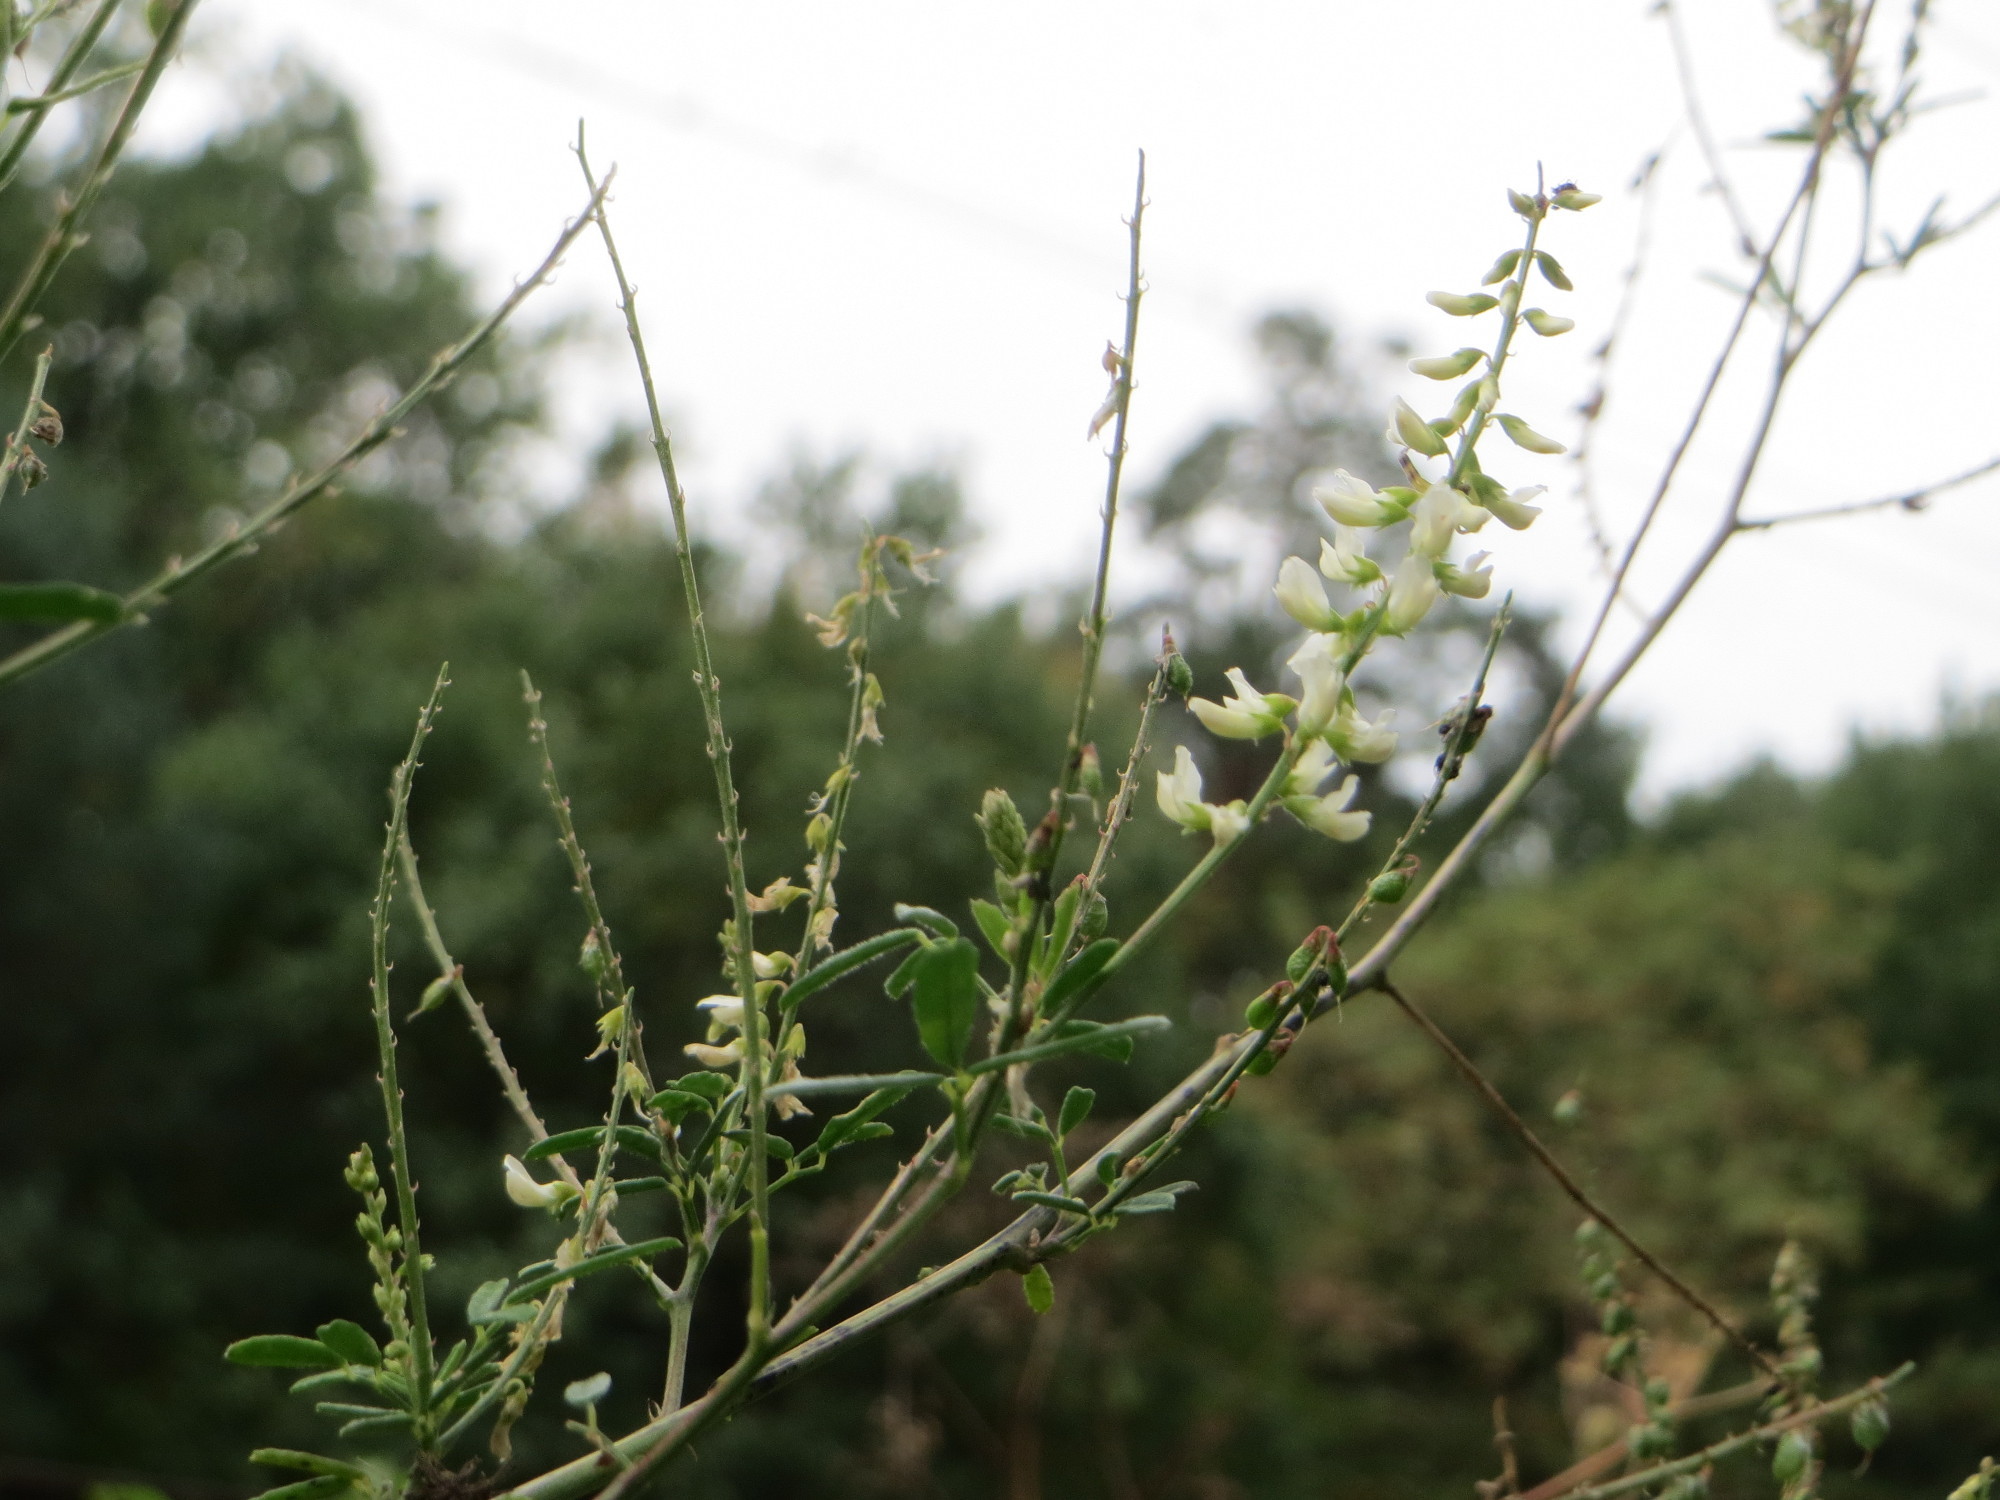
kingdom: Plantae
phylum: Tracheophyta
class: Magnoliopsida
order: Fabales
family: Fabaceae
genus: Melilotus
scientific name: Melilotus albus
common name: White melilot
